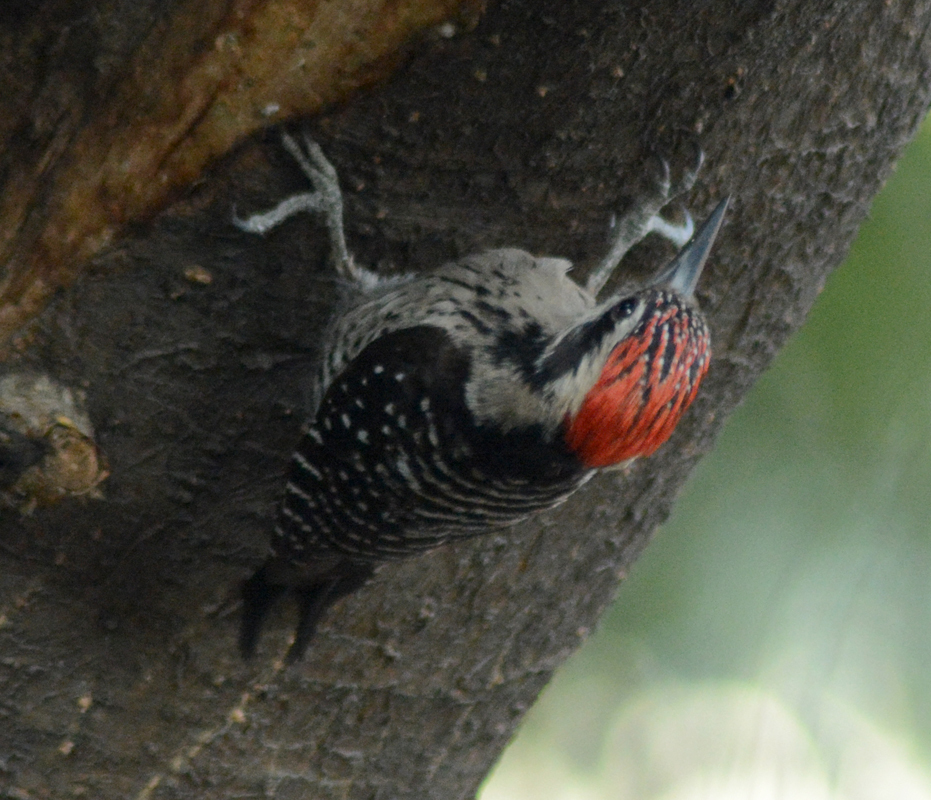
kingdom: Animalia
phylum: Chordata
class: Aves
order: Piciformes
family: Picidae
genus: Dryobates
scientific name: Dryobates scalaris
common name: Ladder-backed woodpecker
